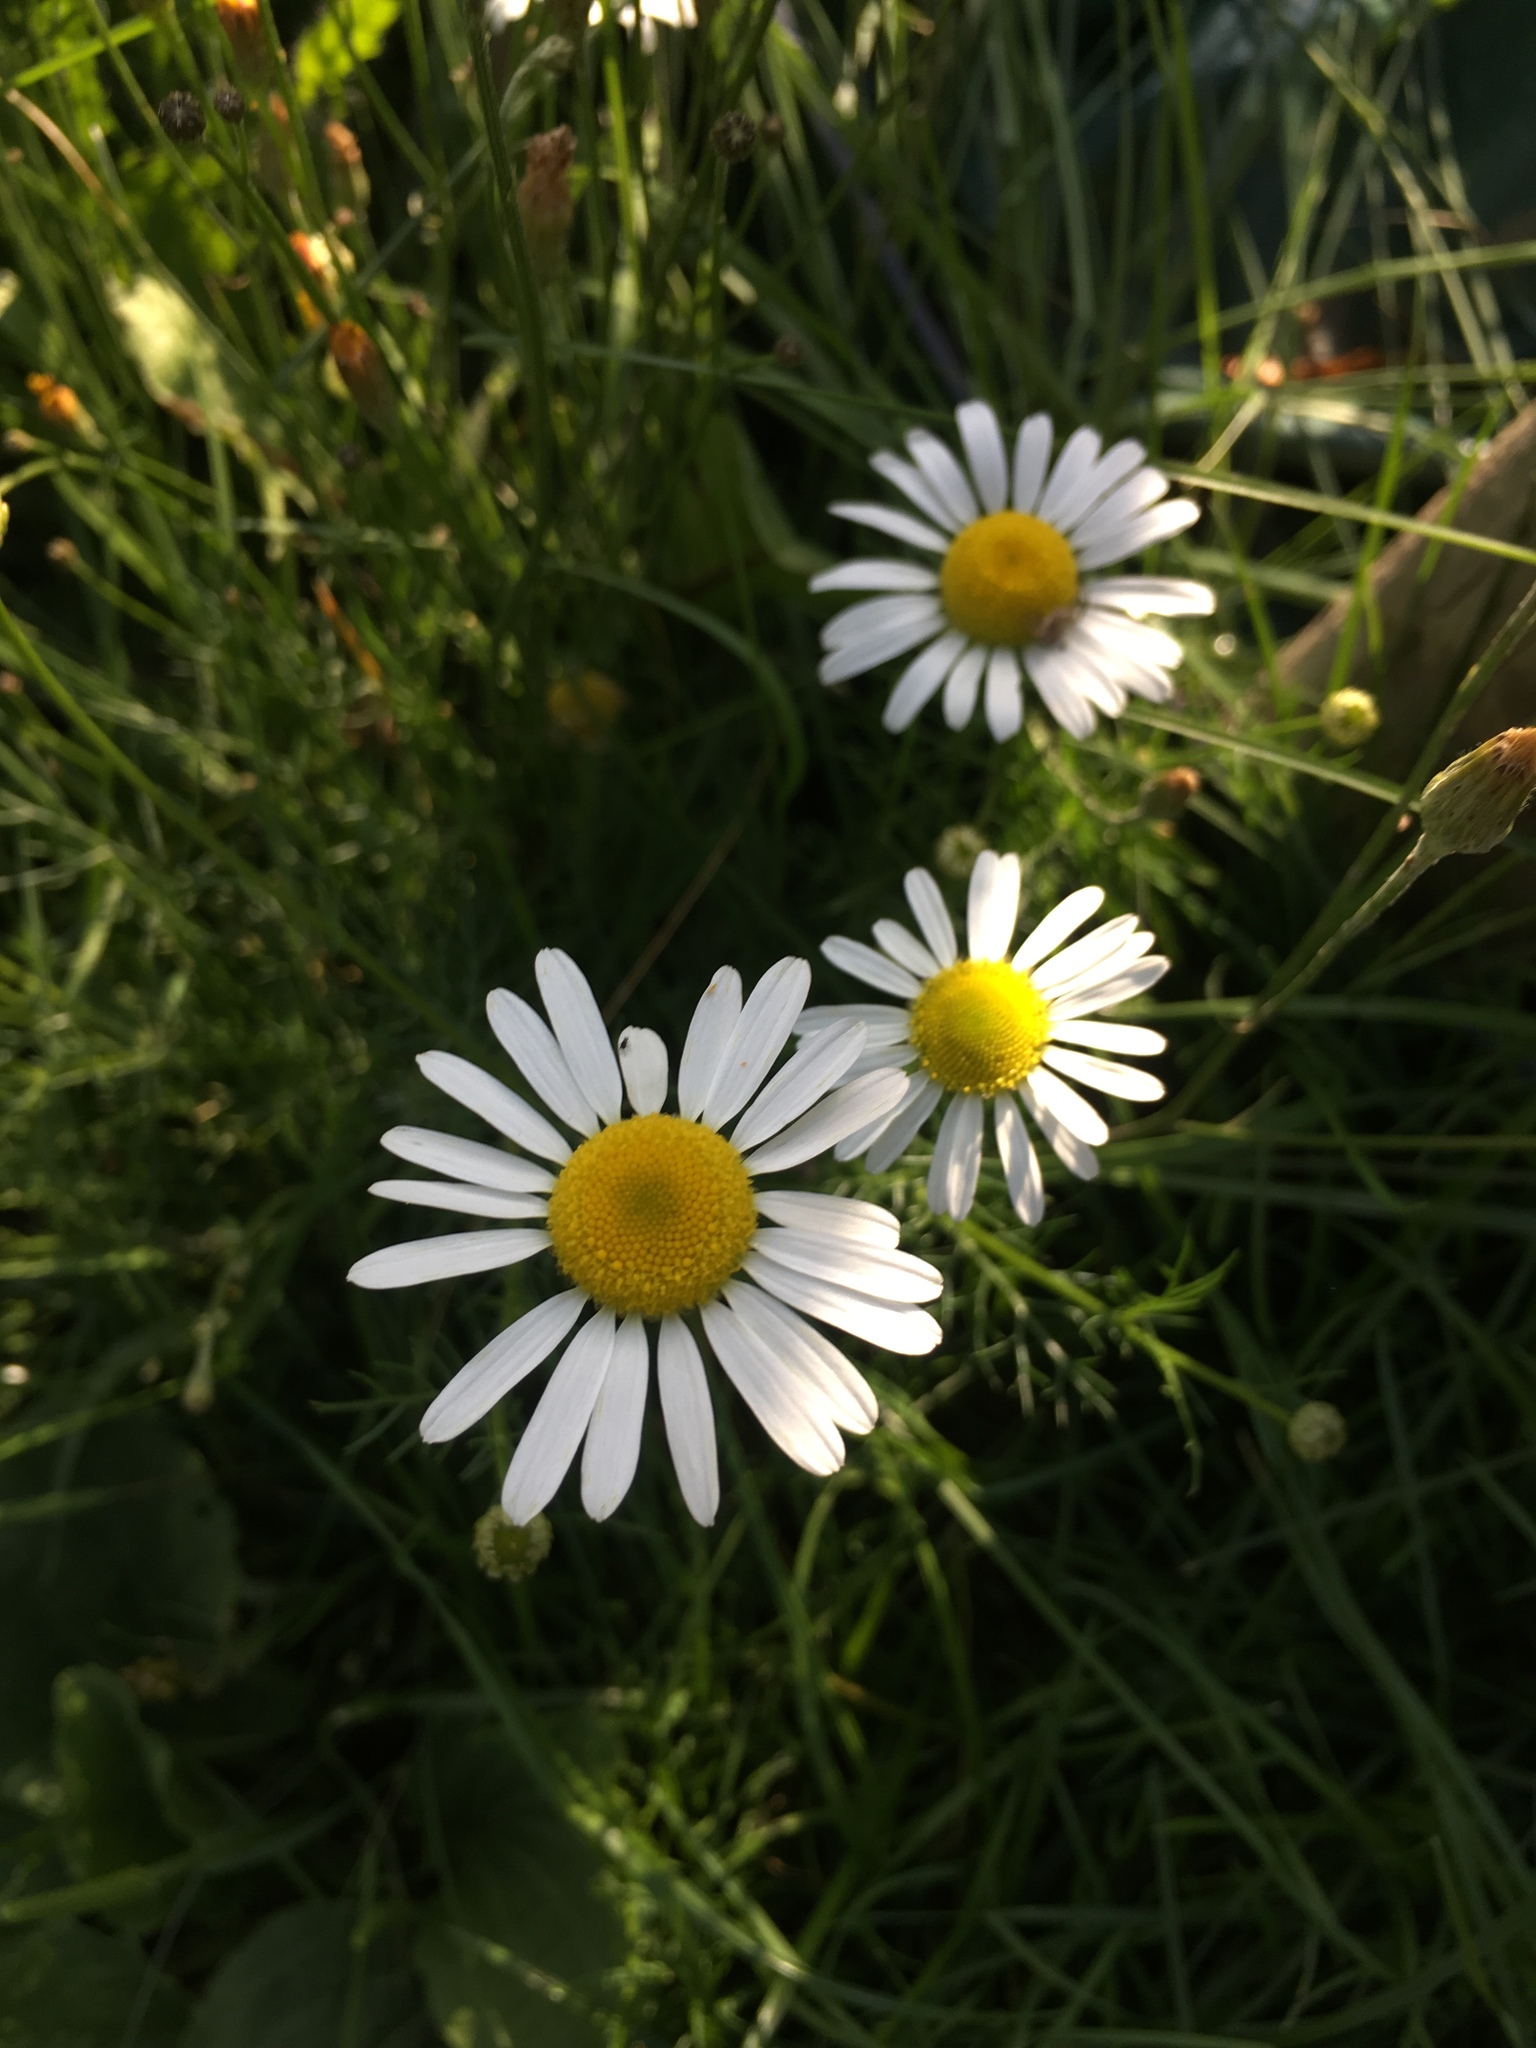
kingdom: Plantae
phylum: Tracheophyta
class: Magnoliopsida
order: Asterales
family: Asteraceae
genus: Tripleurospermum
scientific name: Tripleurospermum inodorum
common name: Scentless mayweed
